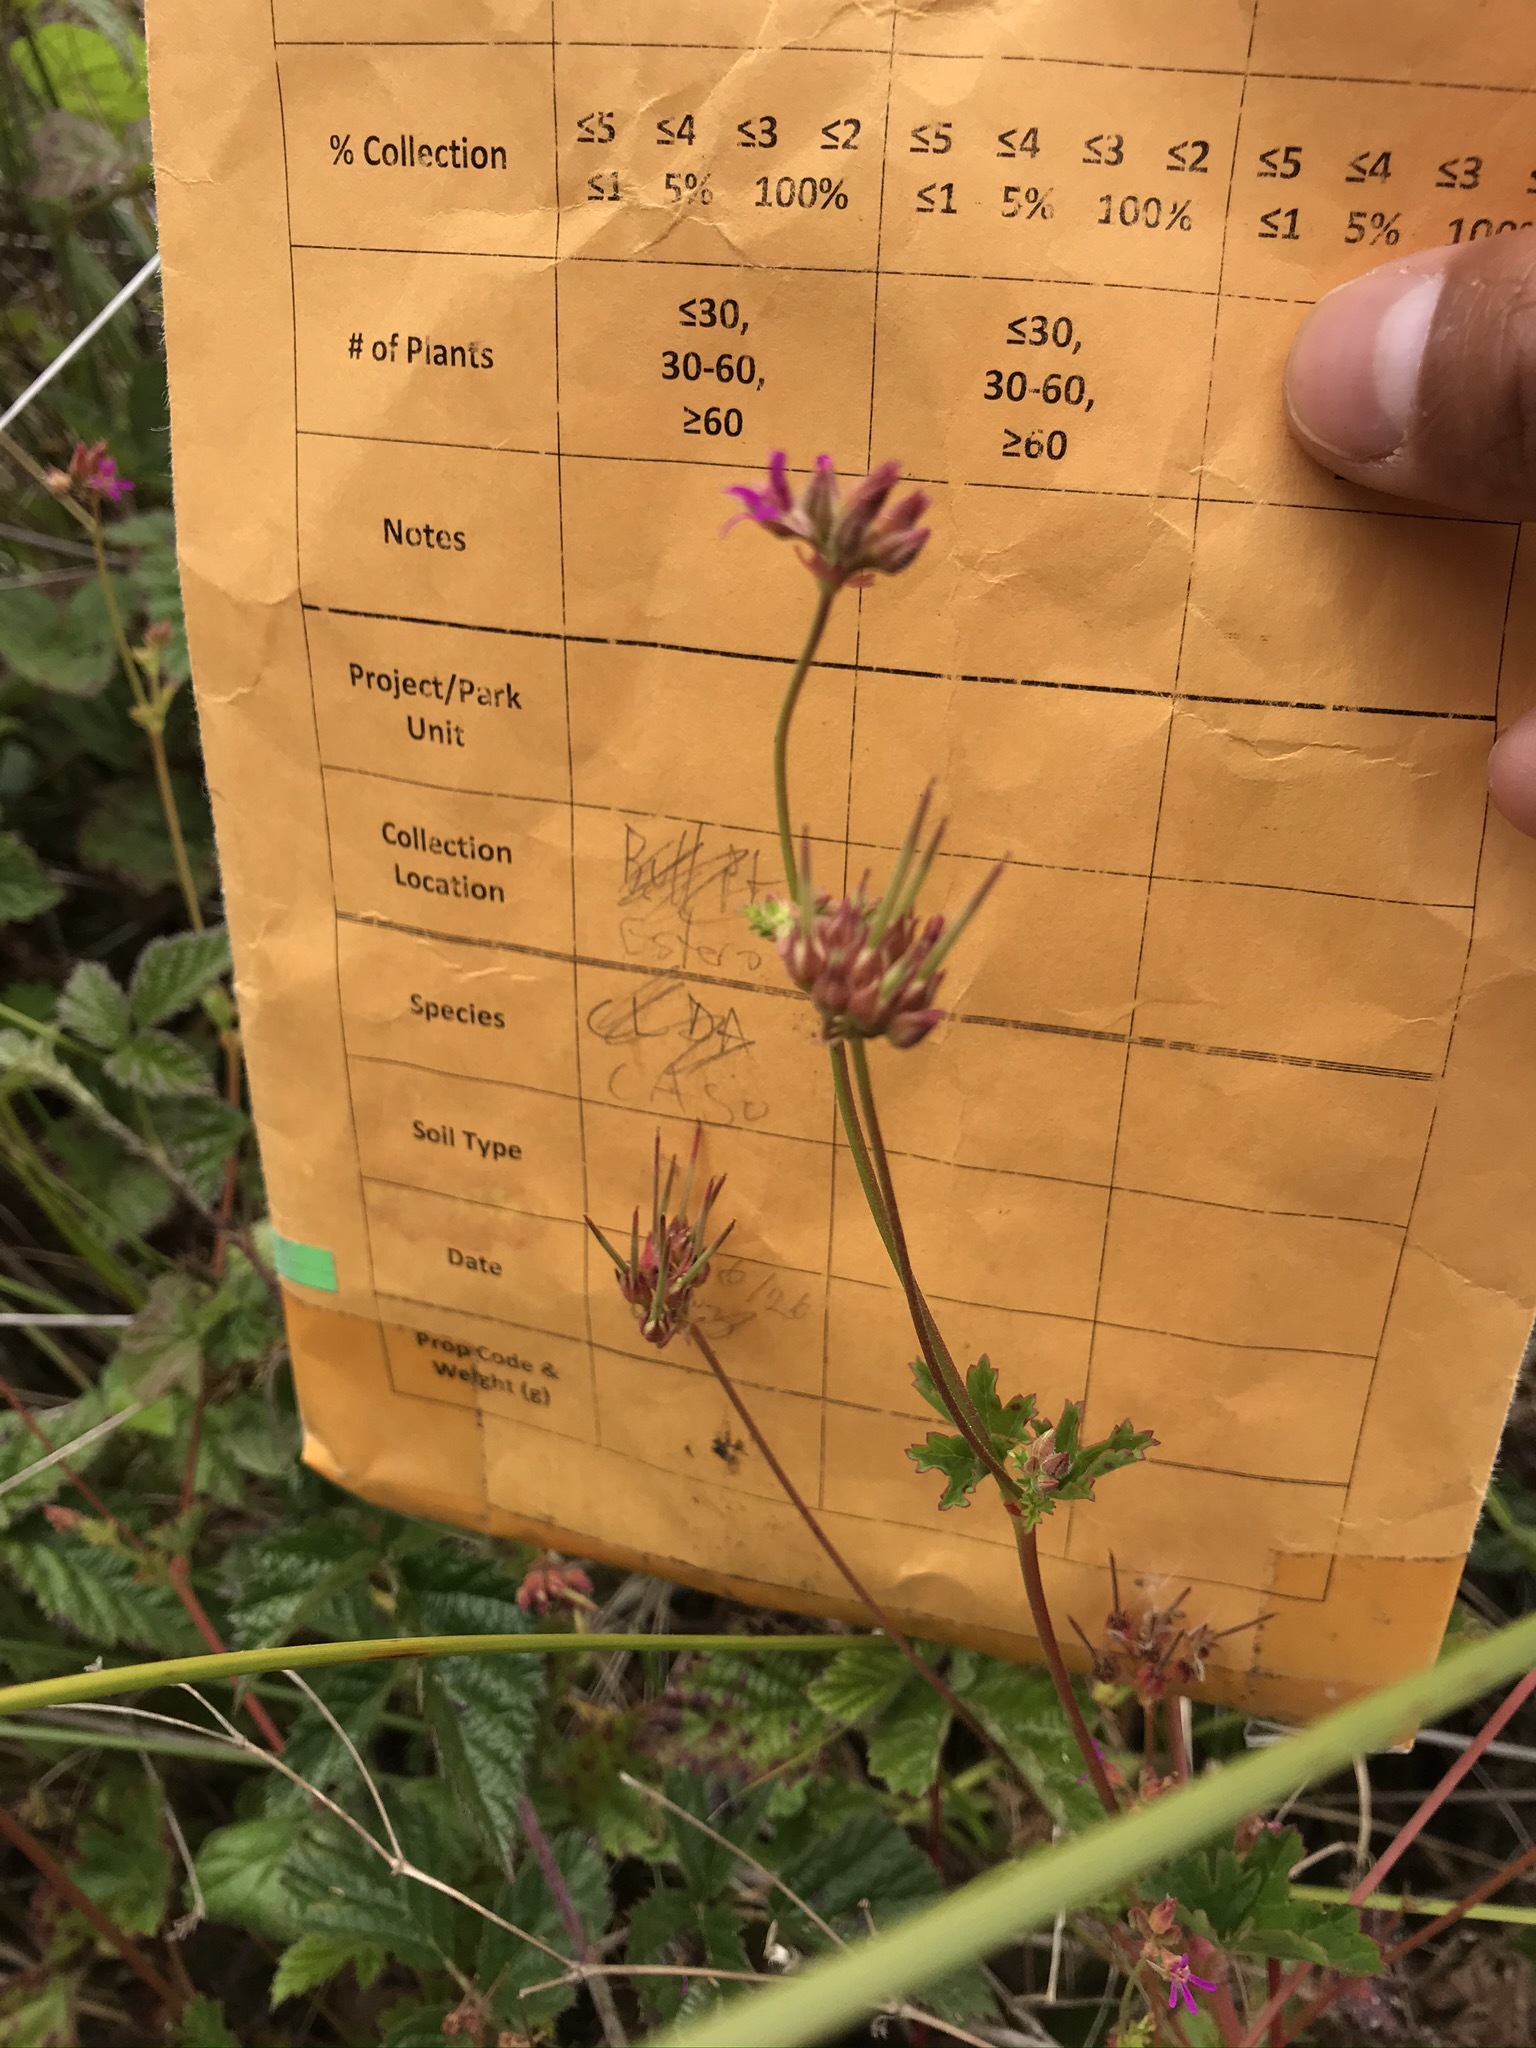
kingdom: Plantae
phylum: Tracheophyta
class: Magnoliopsida
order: Geraniales
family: Geraniaceae
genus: Pelargonium
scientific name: Pelargonium grossularioides
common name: Gooseberry geranium
